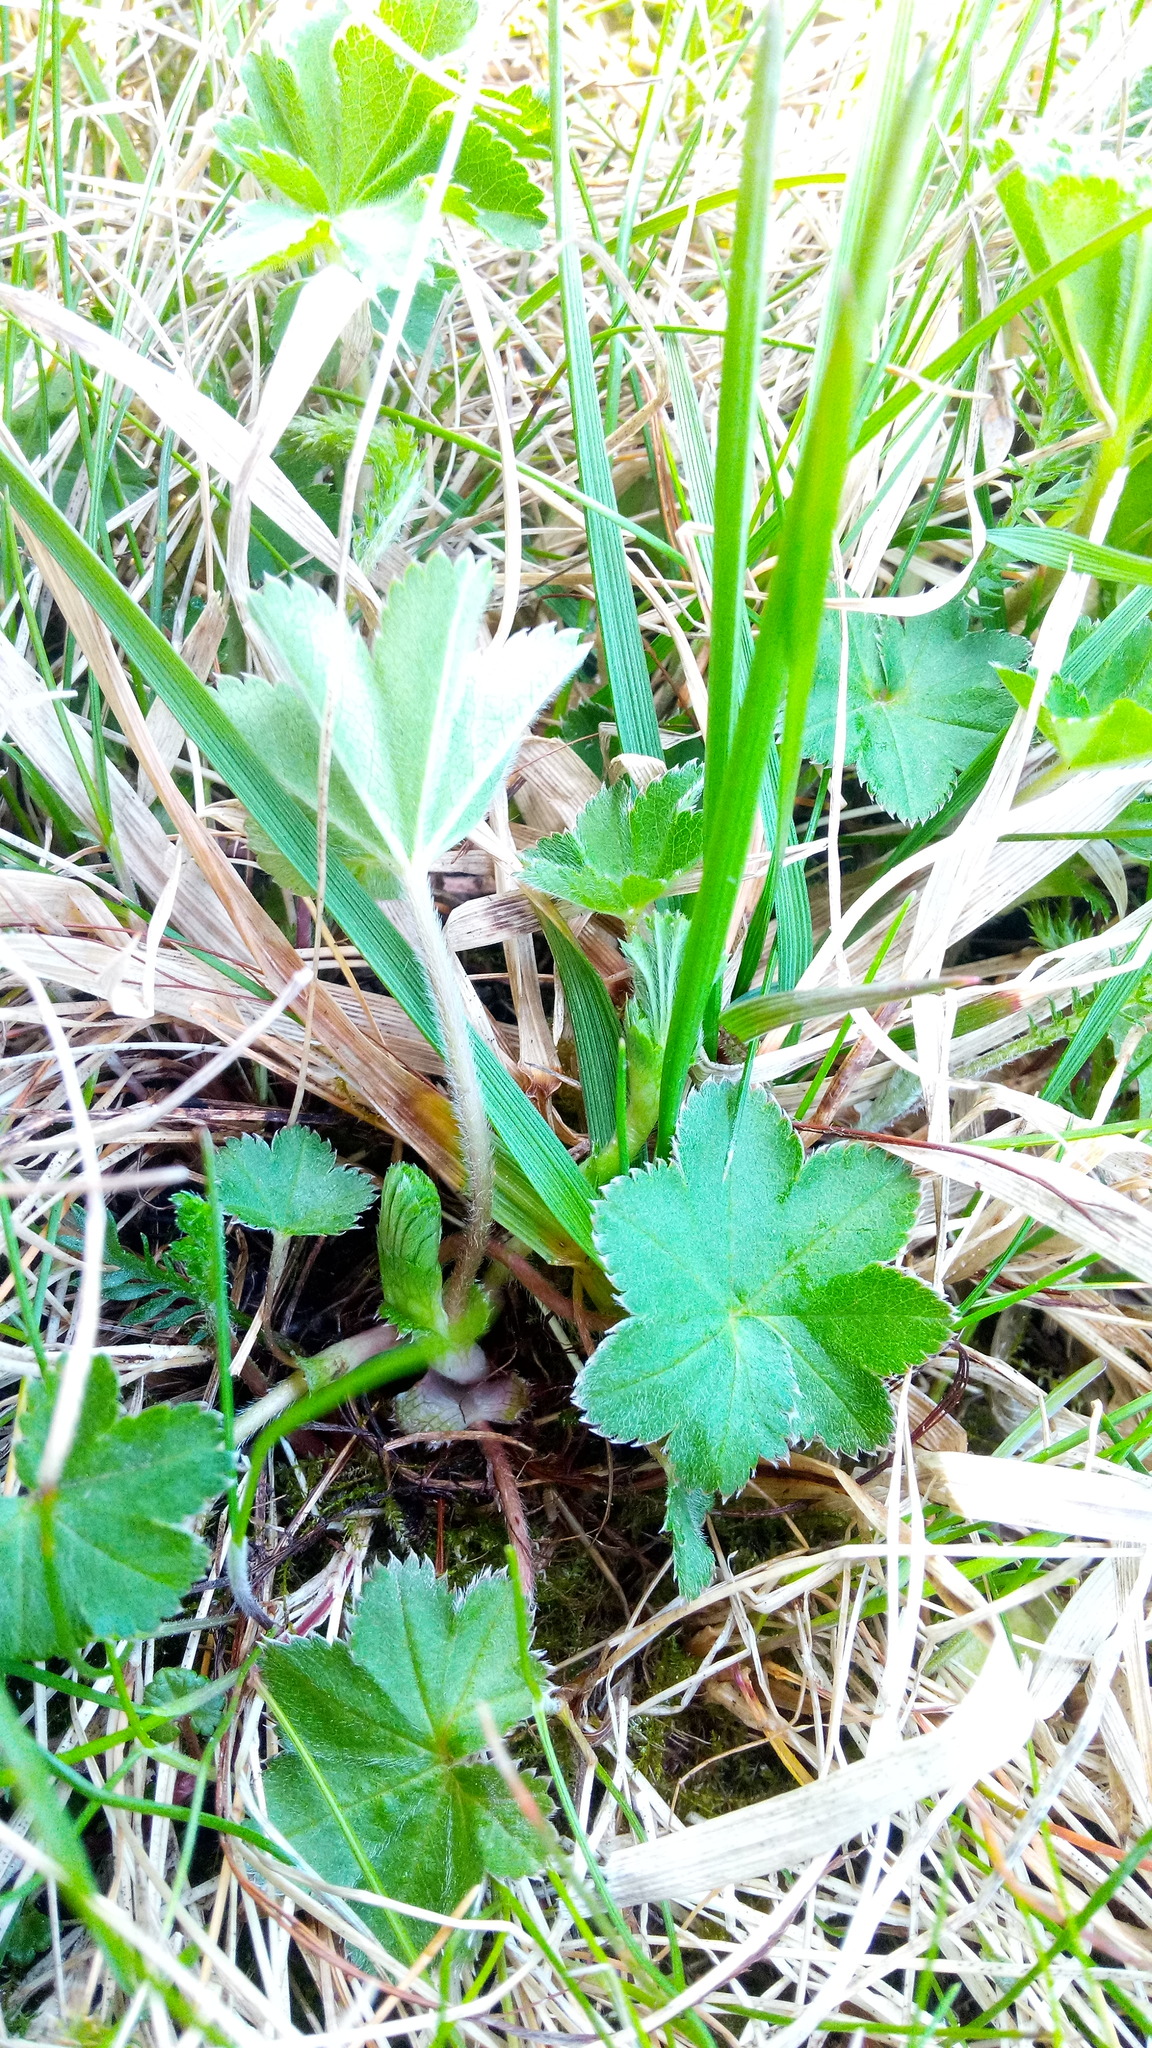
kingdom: Plantae
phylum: Tracheophyta
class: Magnoliopsida
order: Rosales
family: Rosaceae
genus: Alchemilla
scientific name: Alchemilla
